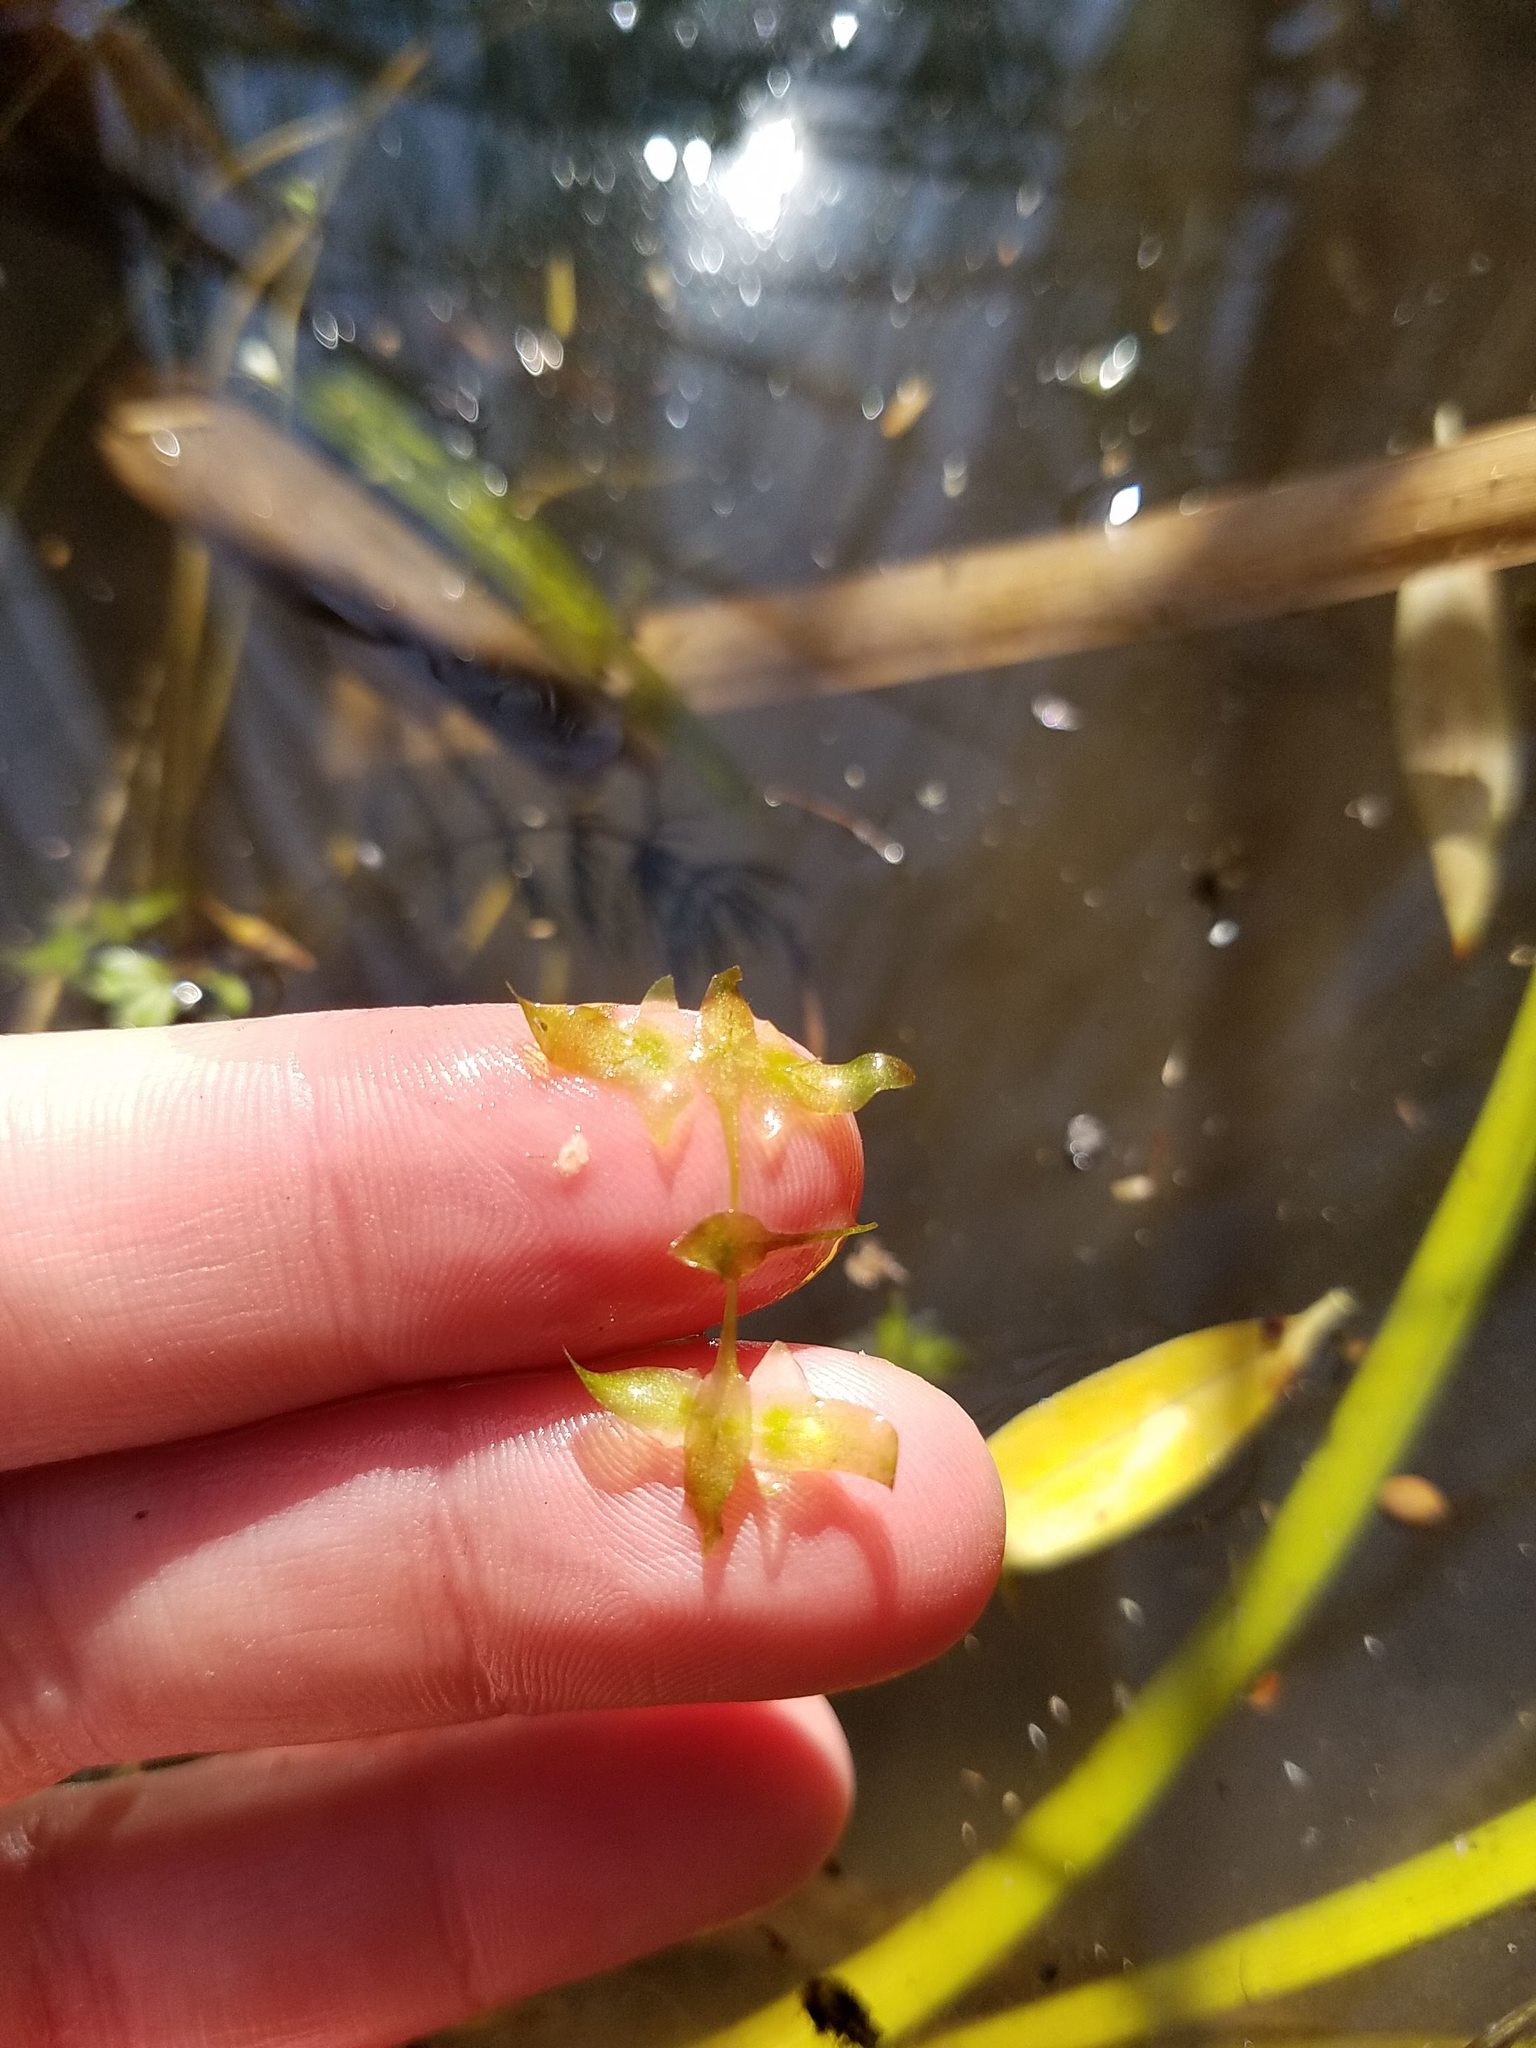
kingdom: Plantae
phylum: Tracheophyta
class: Liliopsida
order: Alismatales
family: Araceae
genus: Lemna
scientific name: Lemna trisulca
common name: Ivy-leaved duckweed
